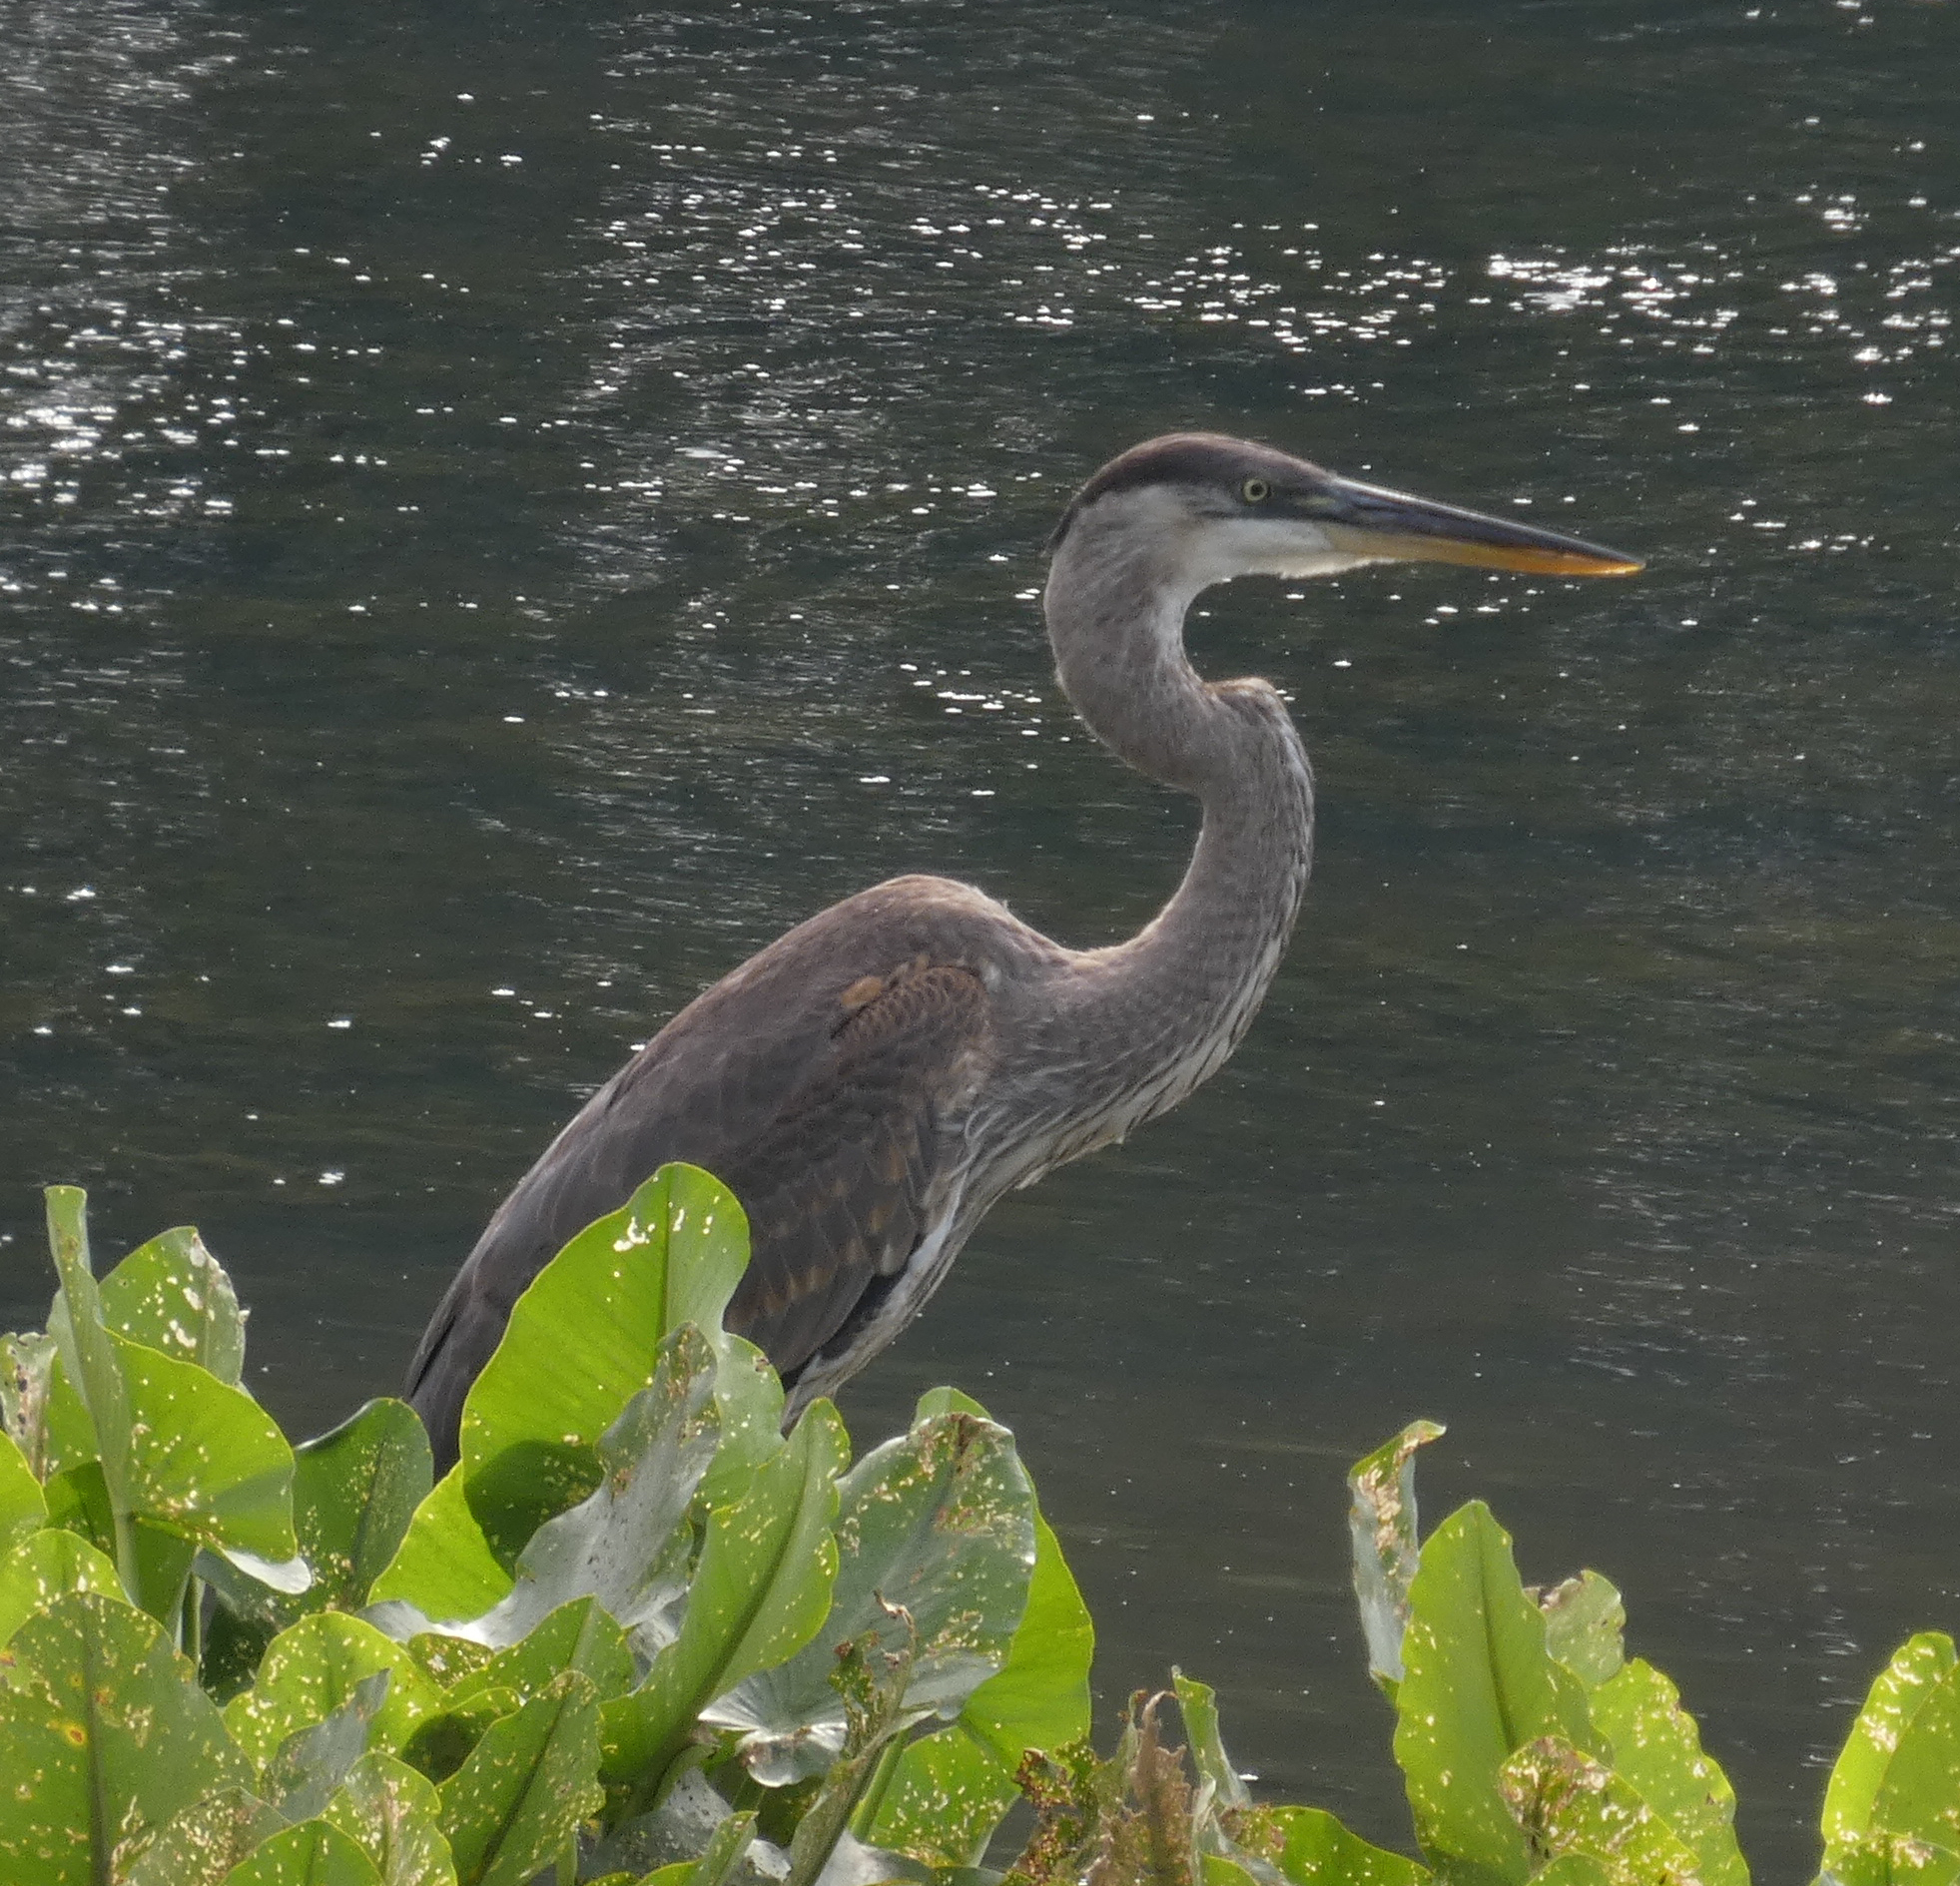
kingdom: Animalia
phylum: Chordata
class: Aves
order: Pelecaniformes
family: Ardeidae
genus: Ardea
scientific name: Ardea herodias
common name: Great blue heron
